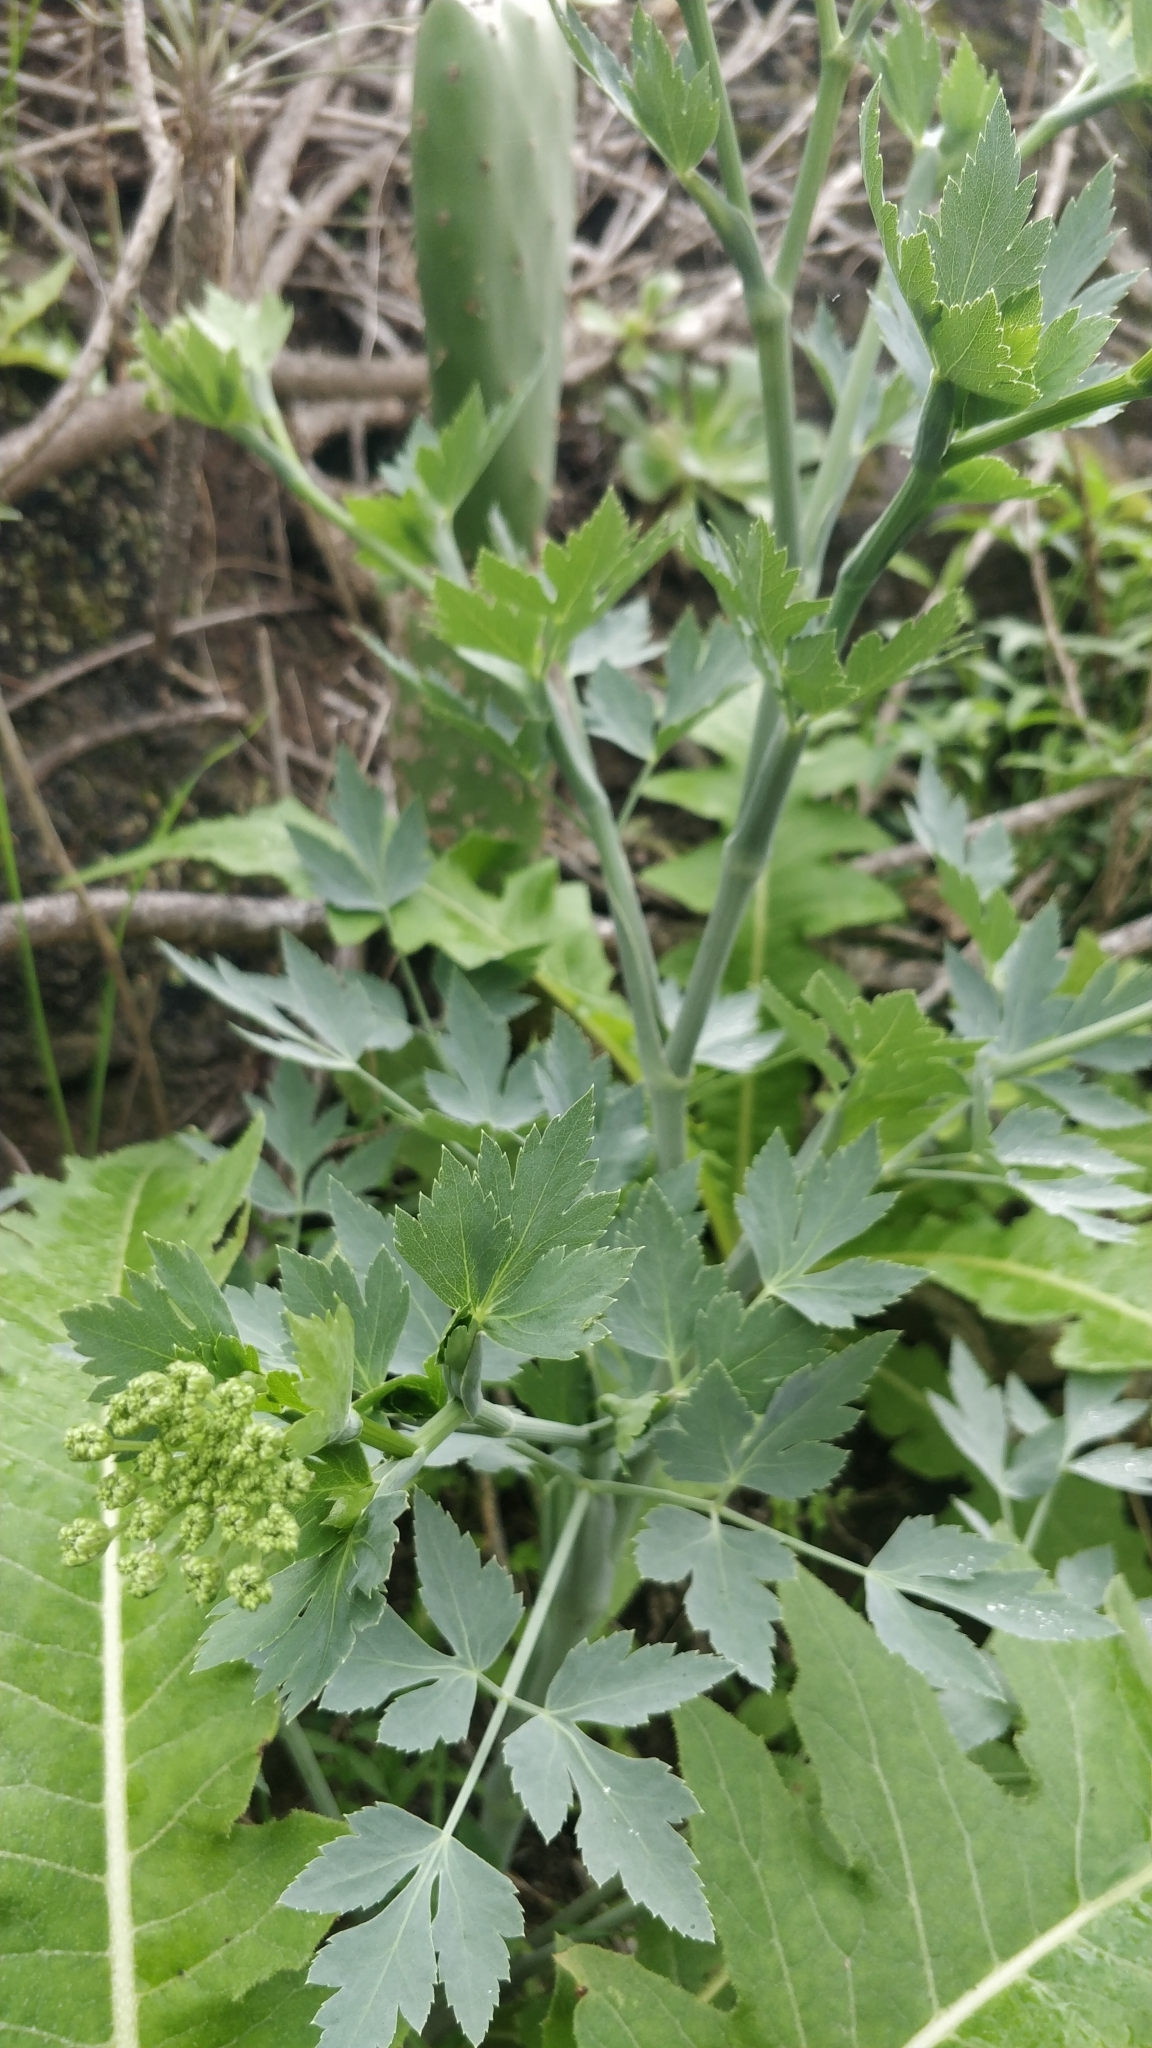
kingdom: Plantae
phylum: Tracheophyta
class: Magnoliopsida
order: Apiales
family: Apiaceae
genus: Athamanta
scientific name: Athamanta cervariifolia
